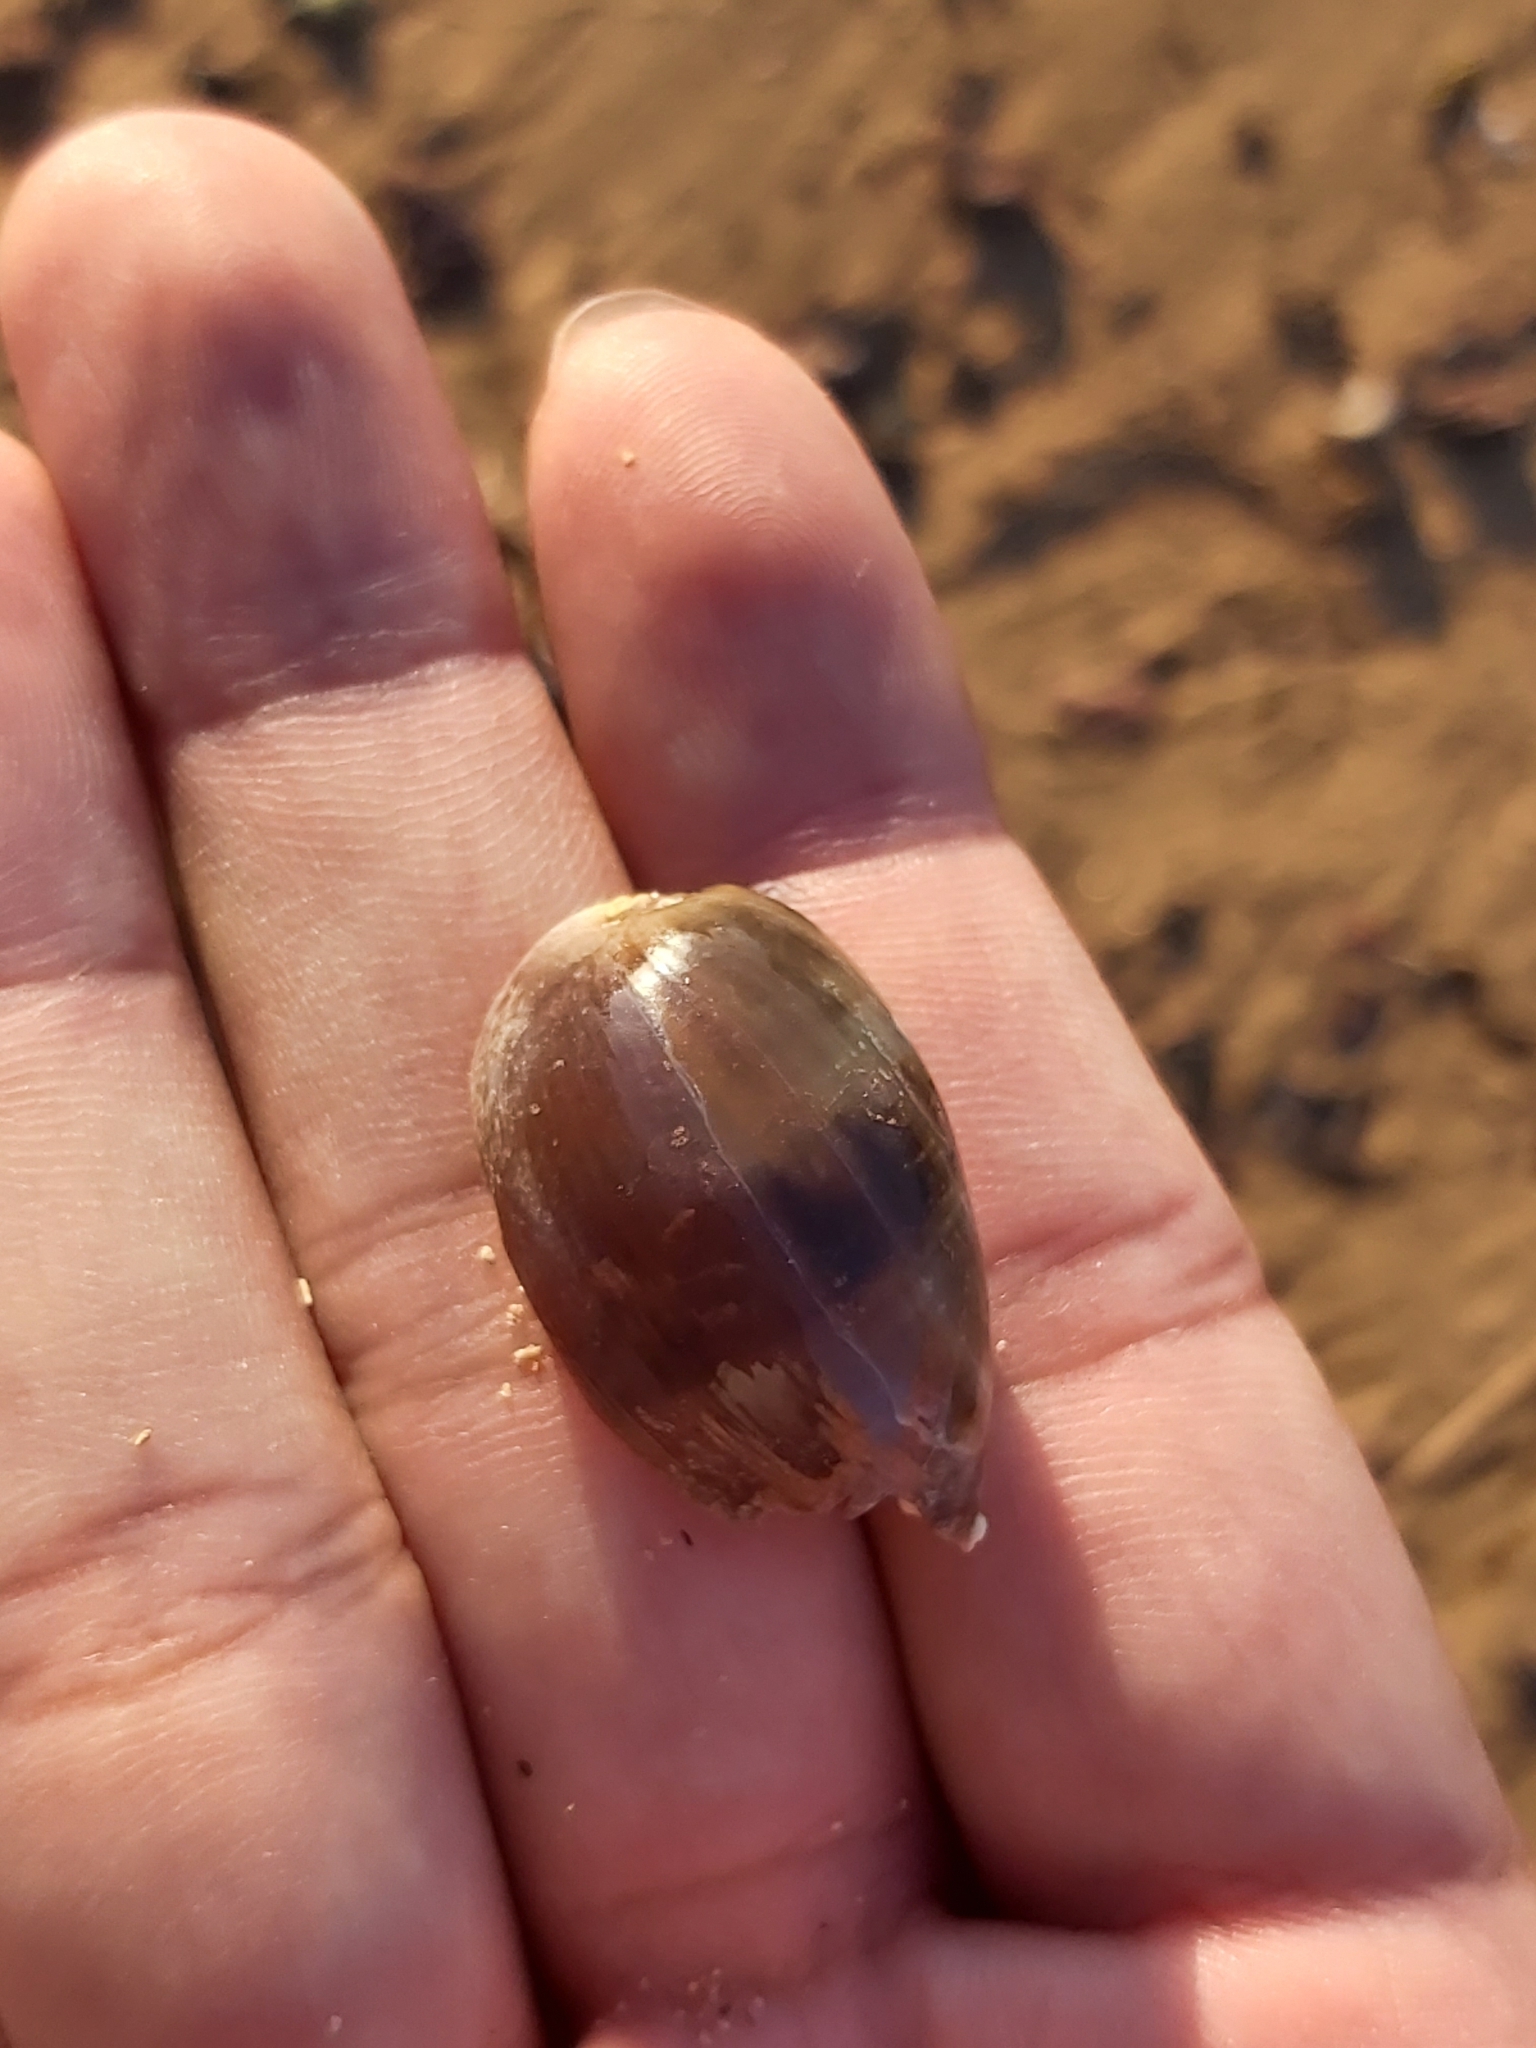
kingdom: Animalia
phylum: Mollusca
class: Gastropoda
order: Littorinimorpha
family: Cypraeidae
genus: Naria
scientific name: Naria erosa
